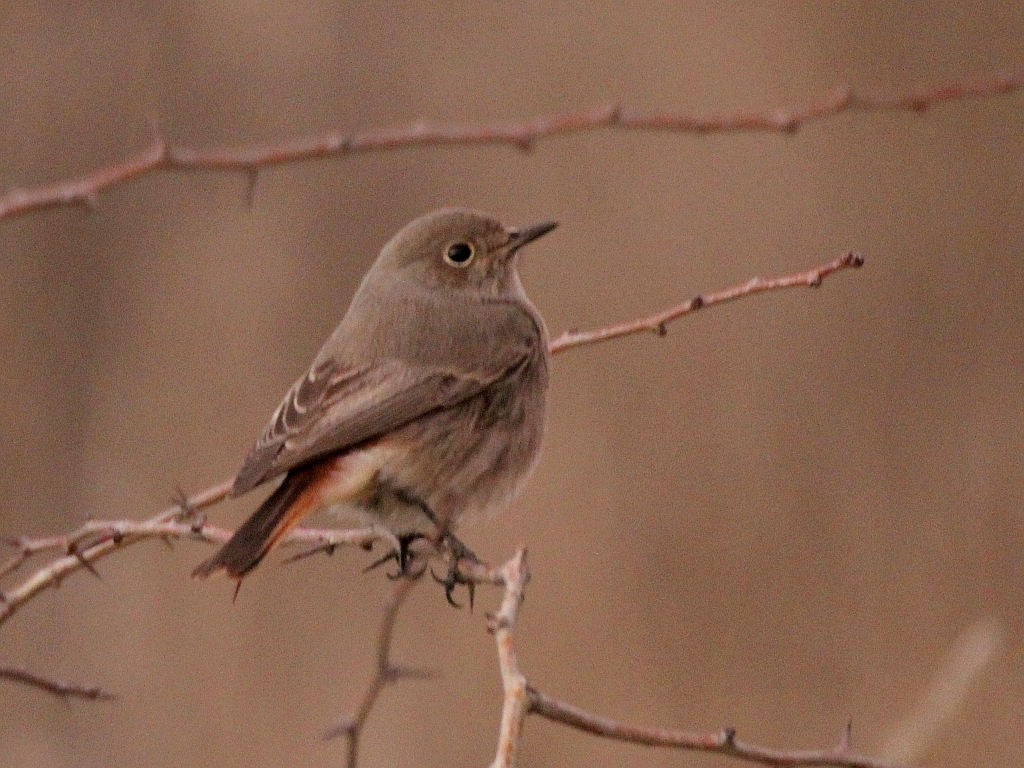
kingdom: Animalia
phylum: Chordata
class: Aves
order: Passeriformes
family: Muscicapidae
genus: Phoenicurus
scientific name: Phoenicurus ochruros
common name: Black redstart
